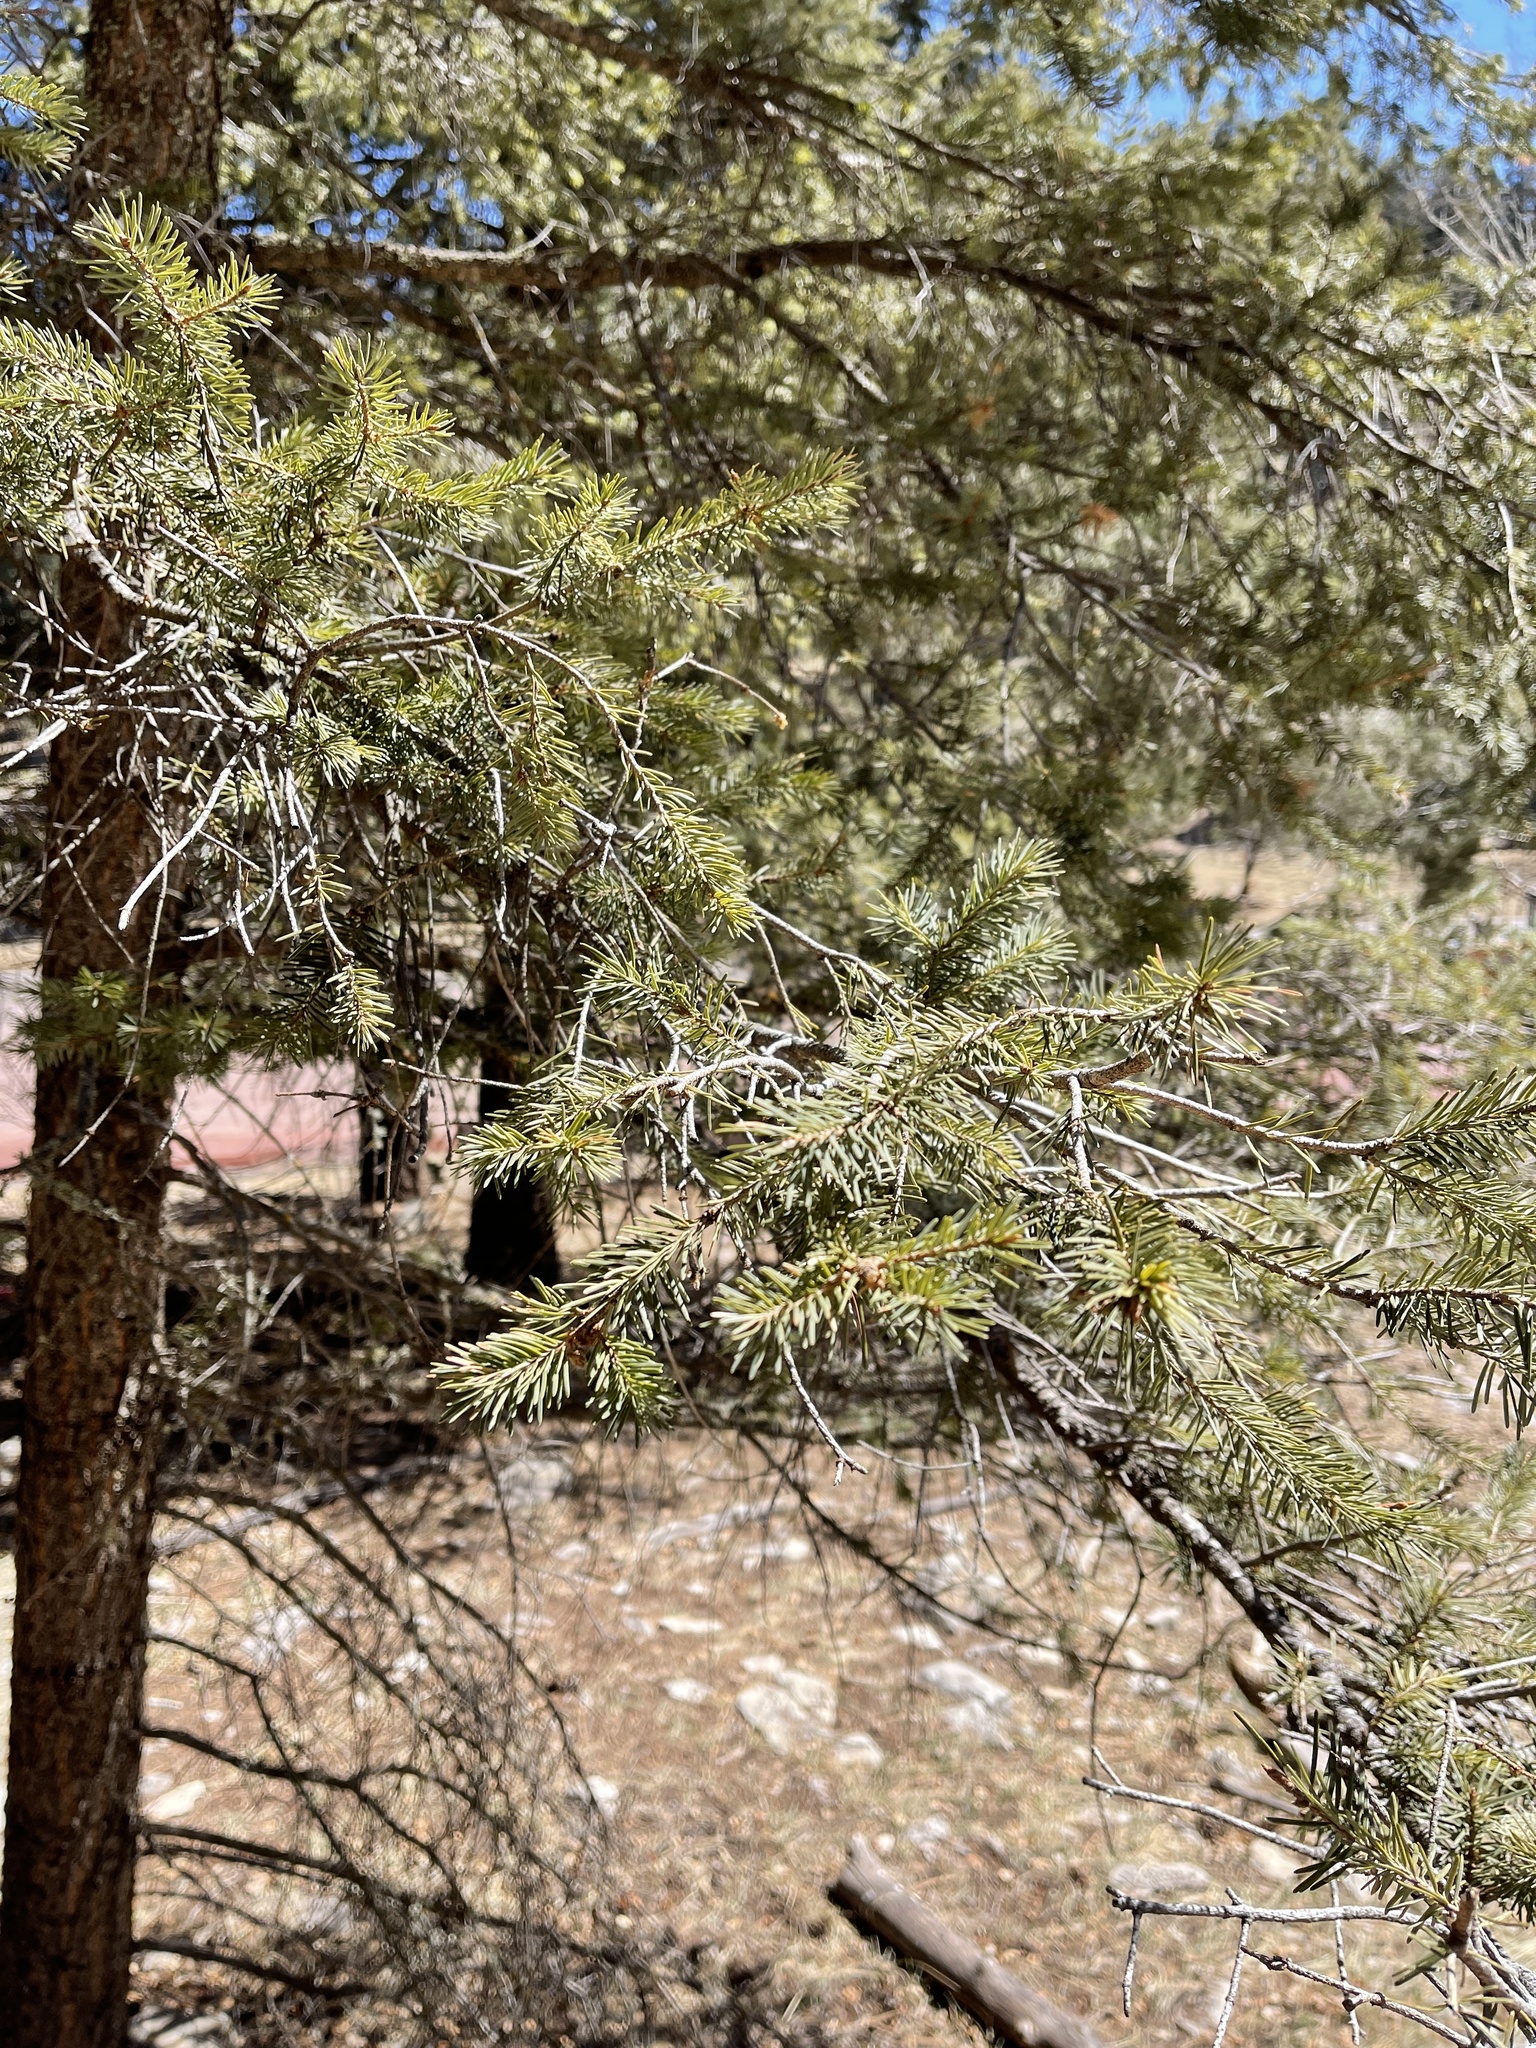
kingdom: Plantae
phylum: Tracheophyta
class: Pinopsida
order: Pinales
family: Pinaceae
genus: Pseudotsuga
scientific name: Pseudotsuga menziesii
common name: Douglas fir
